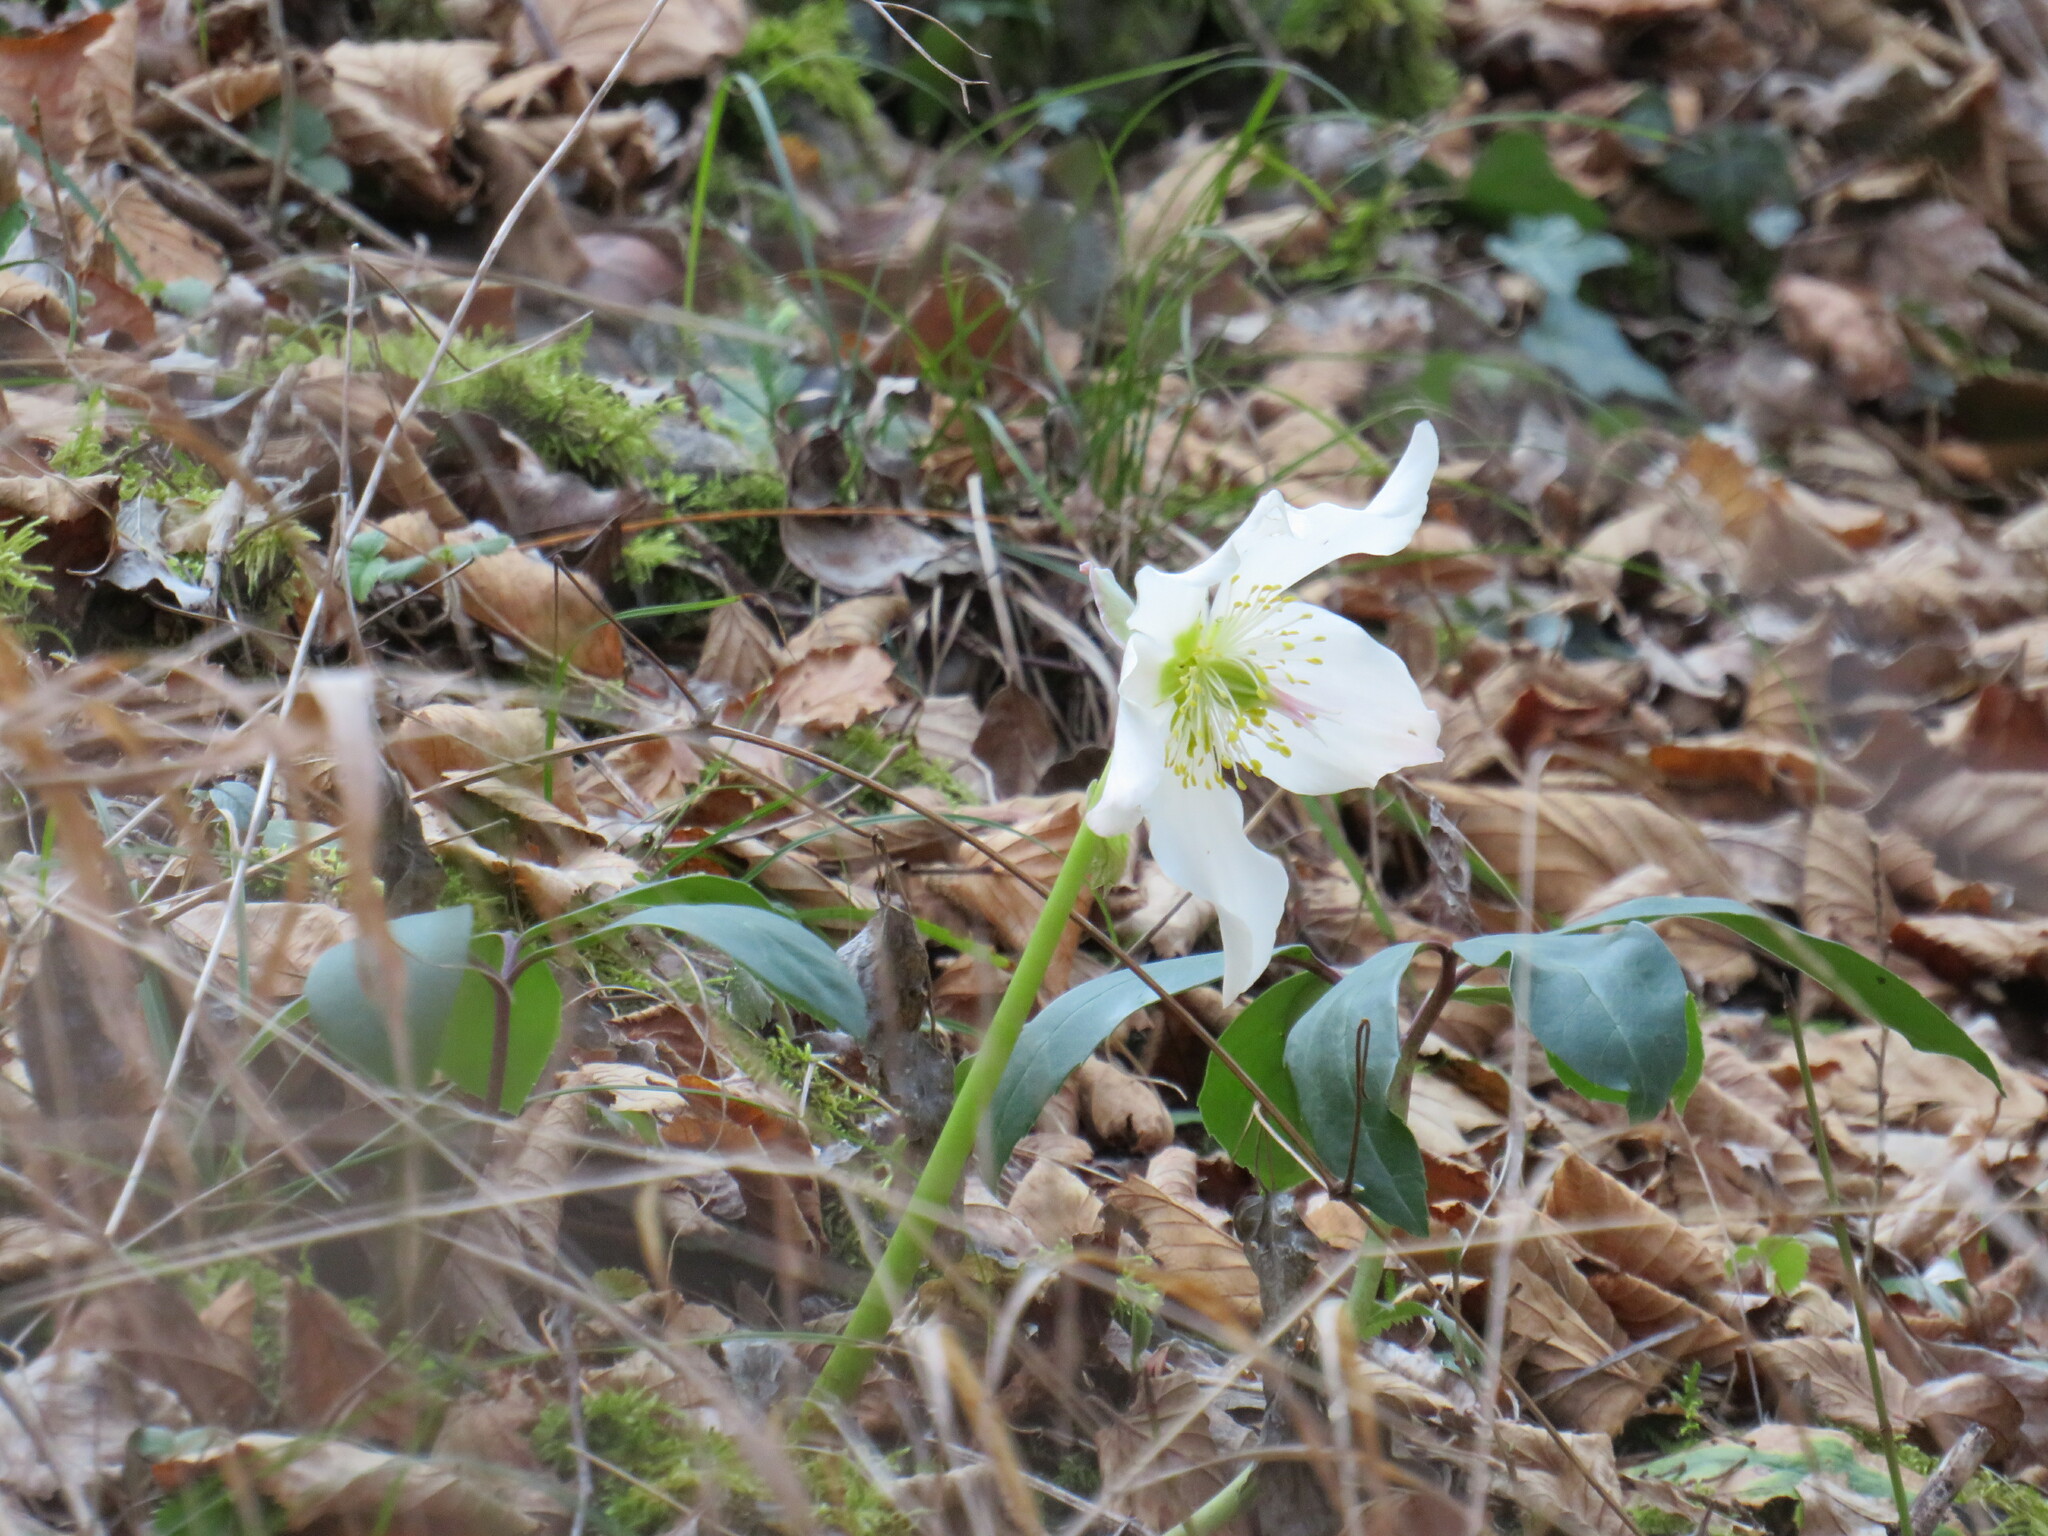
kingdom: Plantae
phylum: Tracheophyta
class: Magnoliopsida
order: Ranunculales
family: Ranunculaceae
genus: Helleborus
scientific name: Helleborus niger
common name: Black hellebore
